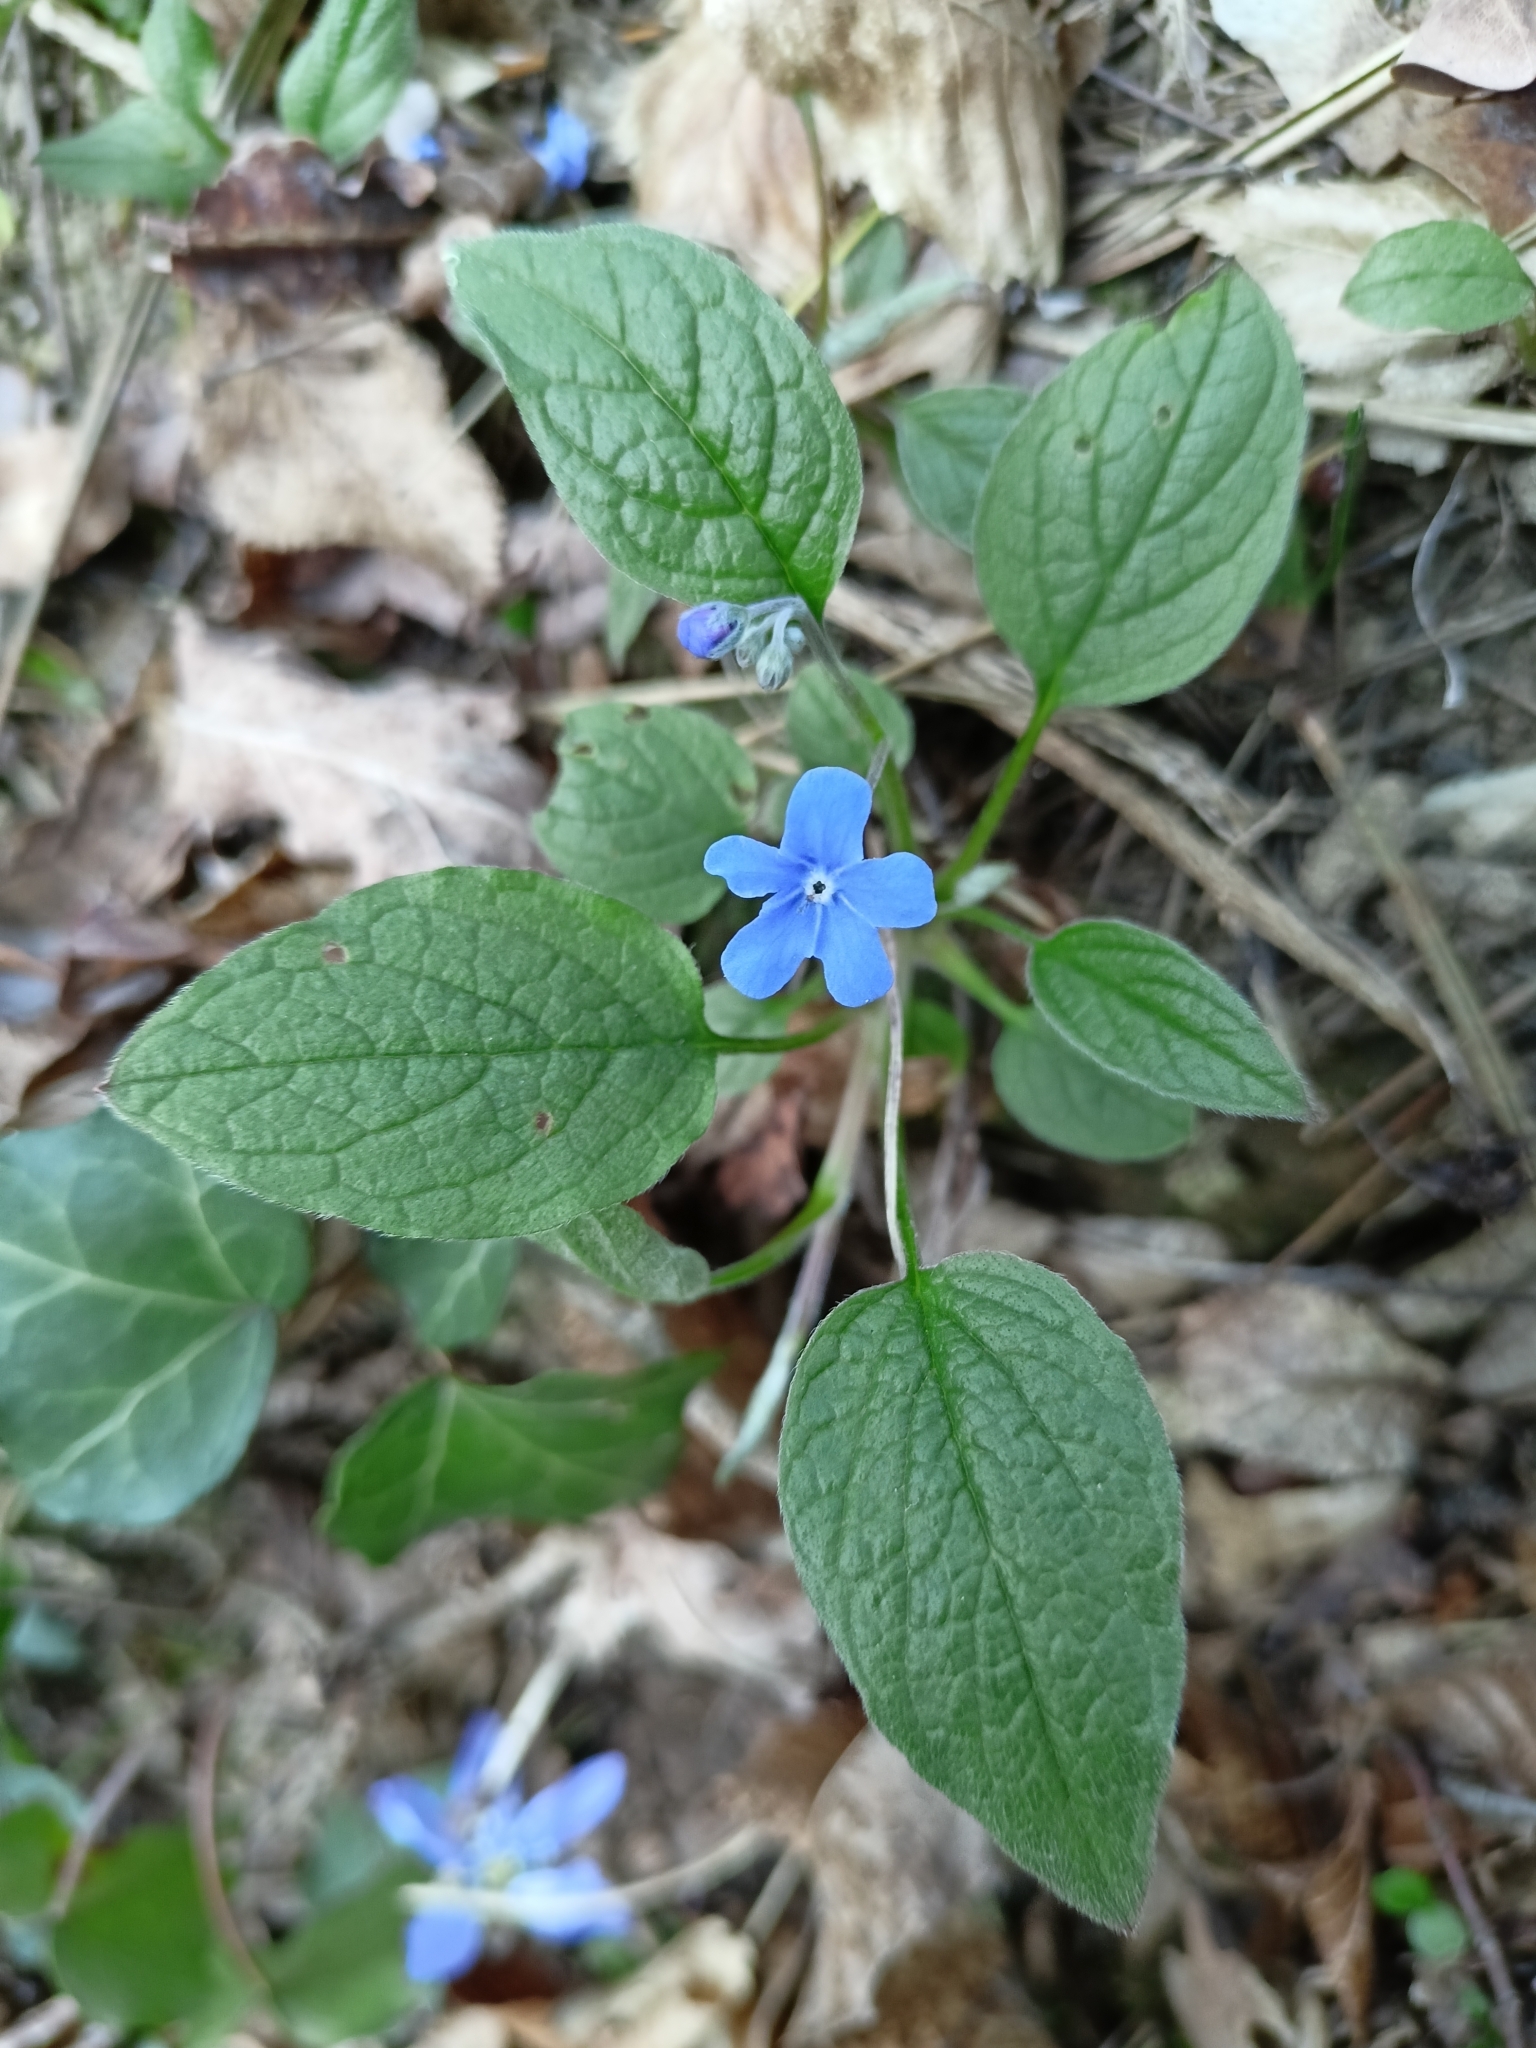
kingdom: Plantae
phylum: Tracheophyta
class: Magnoliopsida
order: Boraginales
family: Boraginaceae
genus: Omphalodes
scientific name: Omphalodes verna
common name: Blue-eyed-mary
